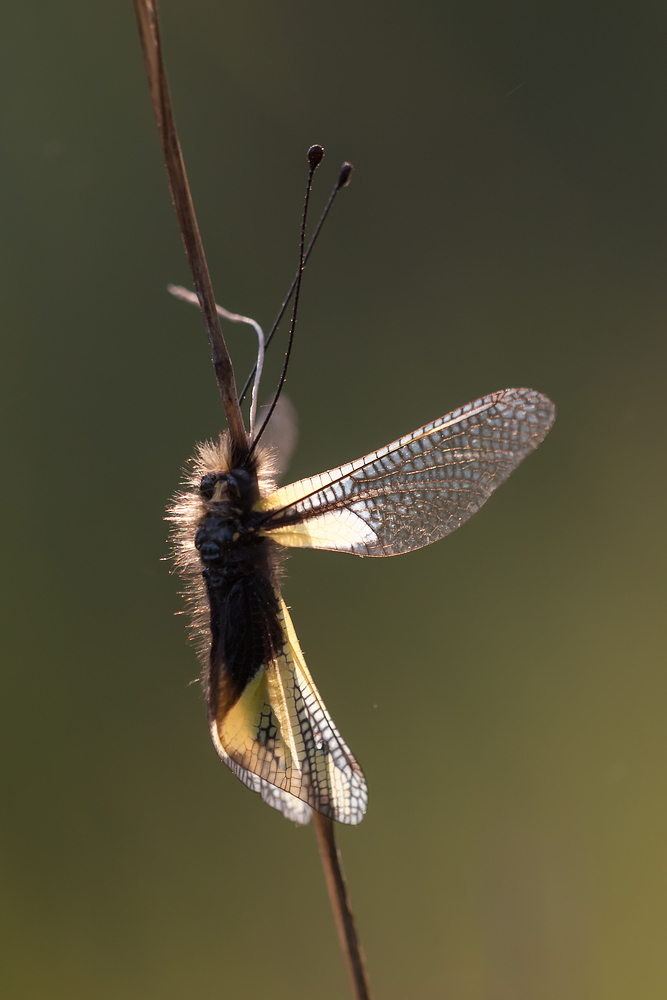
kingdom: Animalia
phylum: Arthropoda
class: Insecta
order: Neuroptera
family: Ascalaphidae
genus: Libelloides
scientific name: Libelloides coccajus
